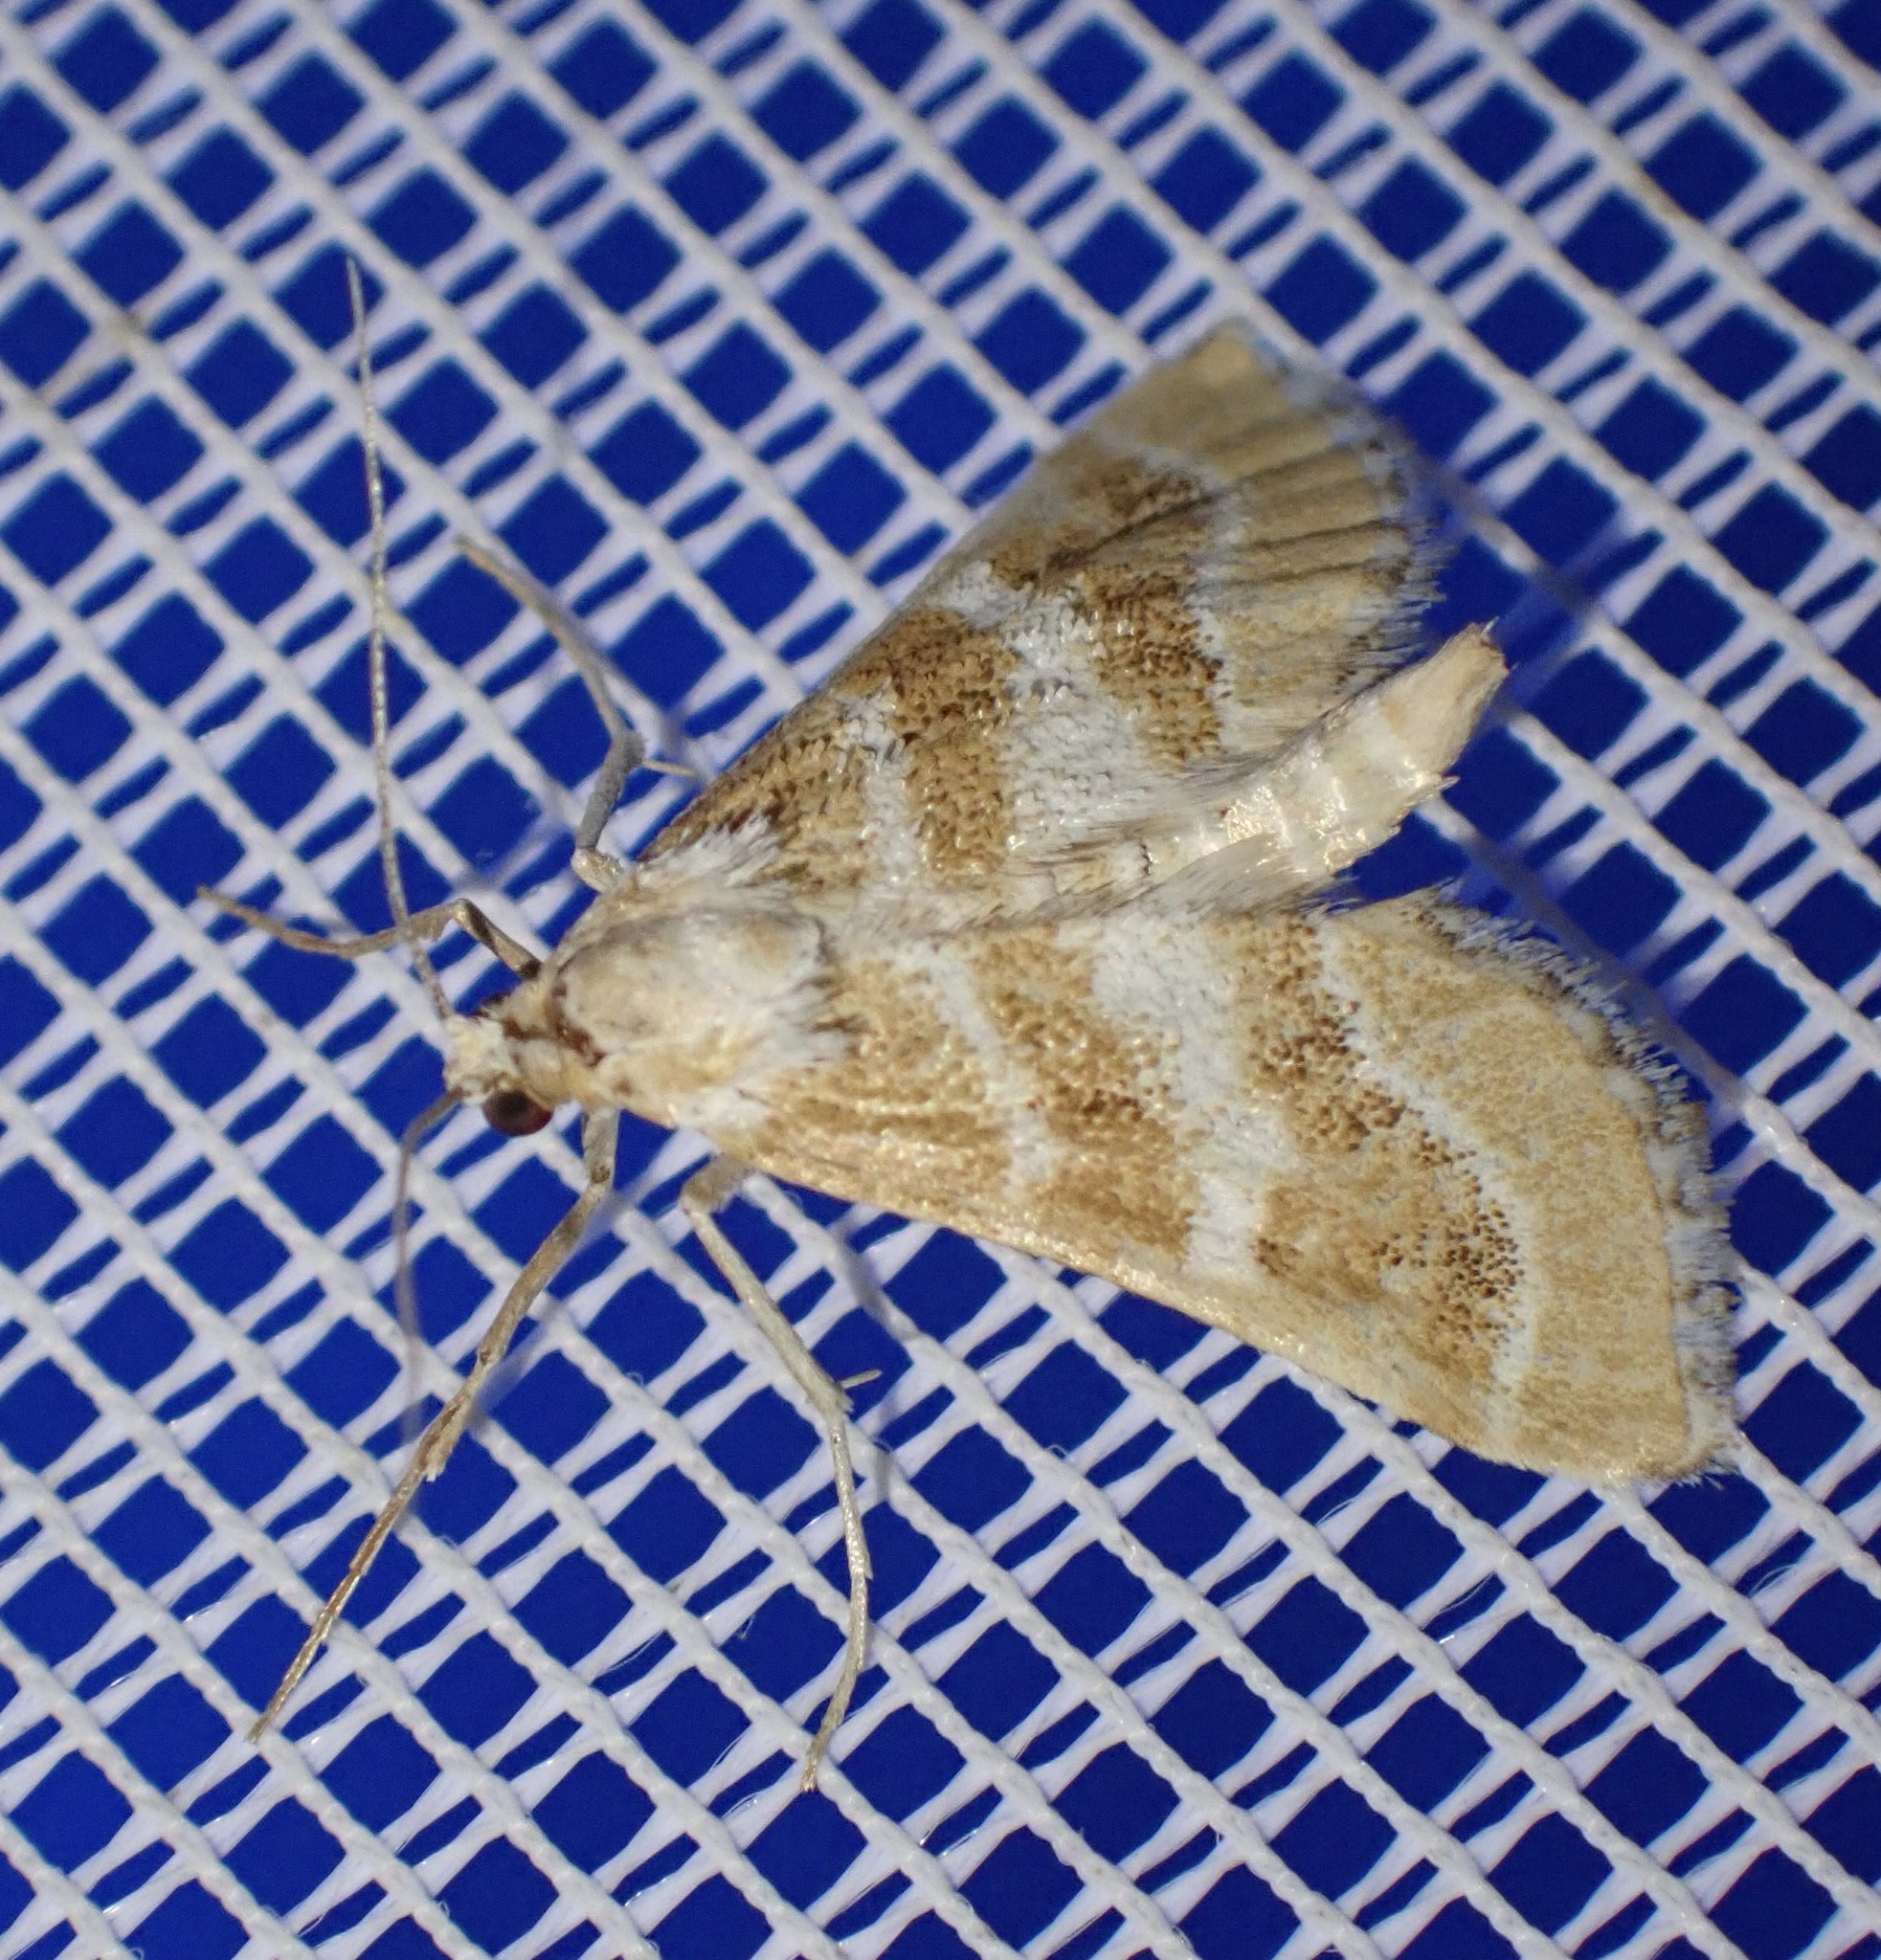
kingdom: Animalia
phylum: Arthropoda
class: Insecta
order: Lepidoptera
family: Crambidae
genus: Metasia
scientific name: Metasia suppandalis
